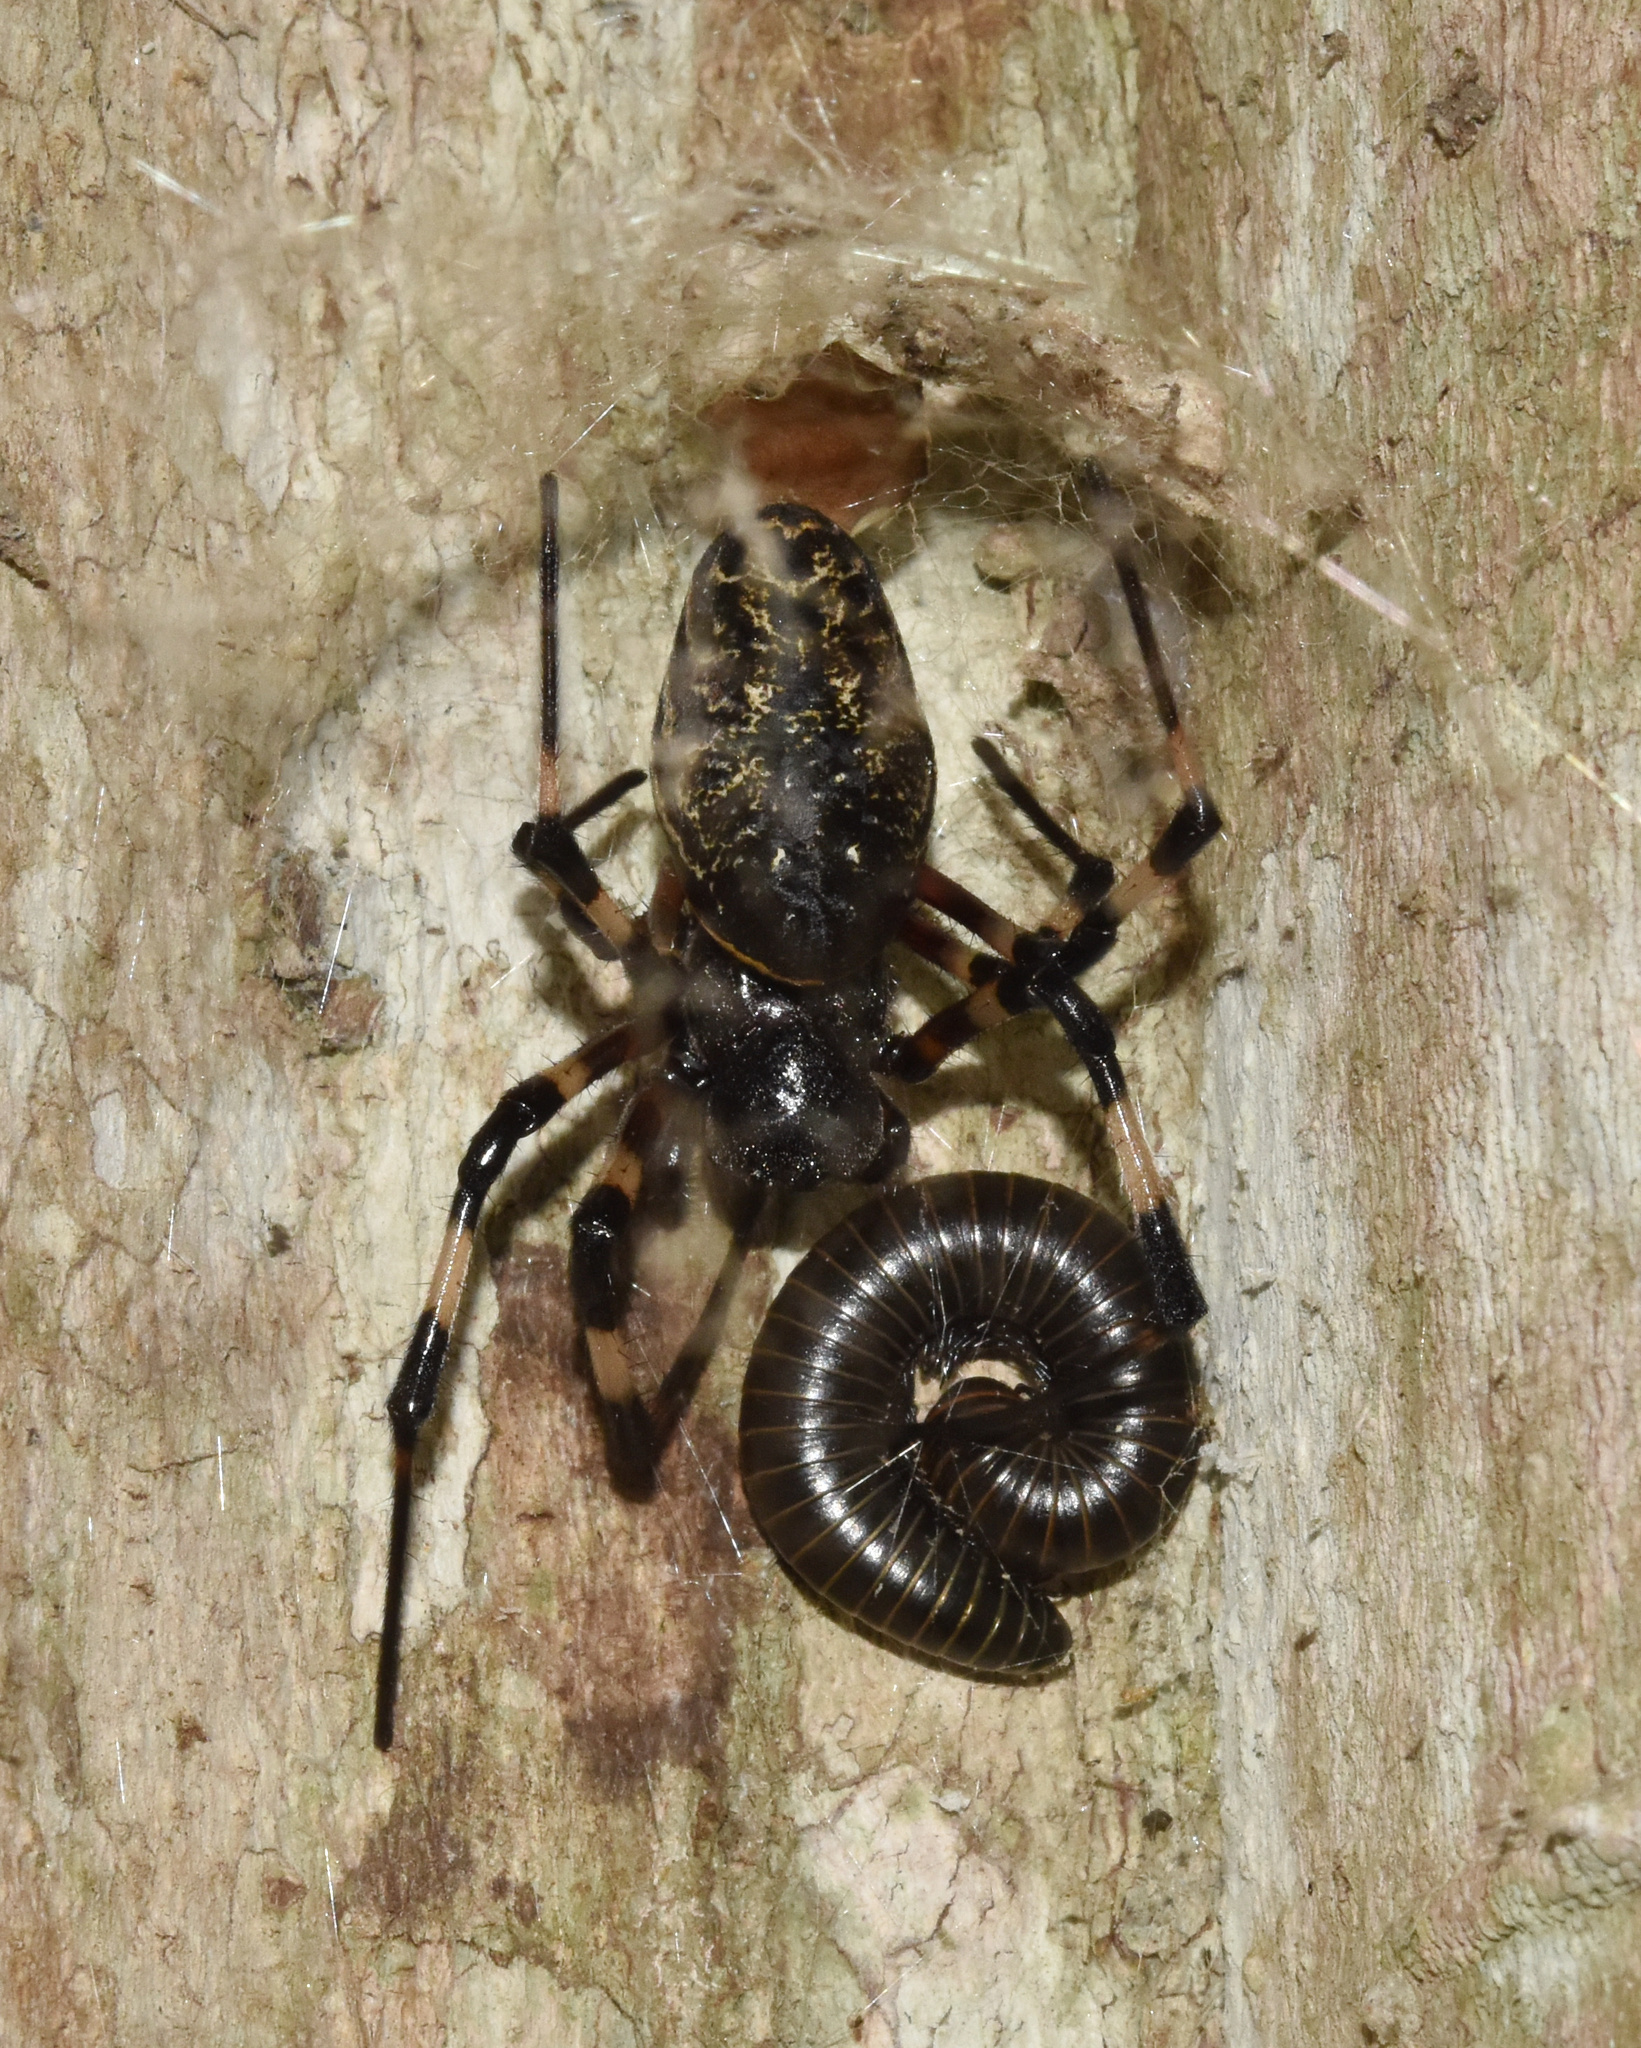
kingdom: Animalia
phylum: Arthropoda
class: Arachnida
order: Araneae
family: Araneidae
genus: Nephilingis
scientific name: Nephilingis cruentata
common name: African hermit spider
